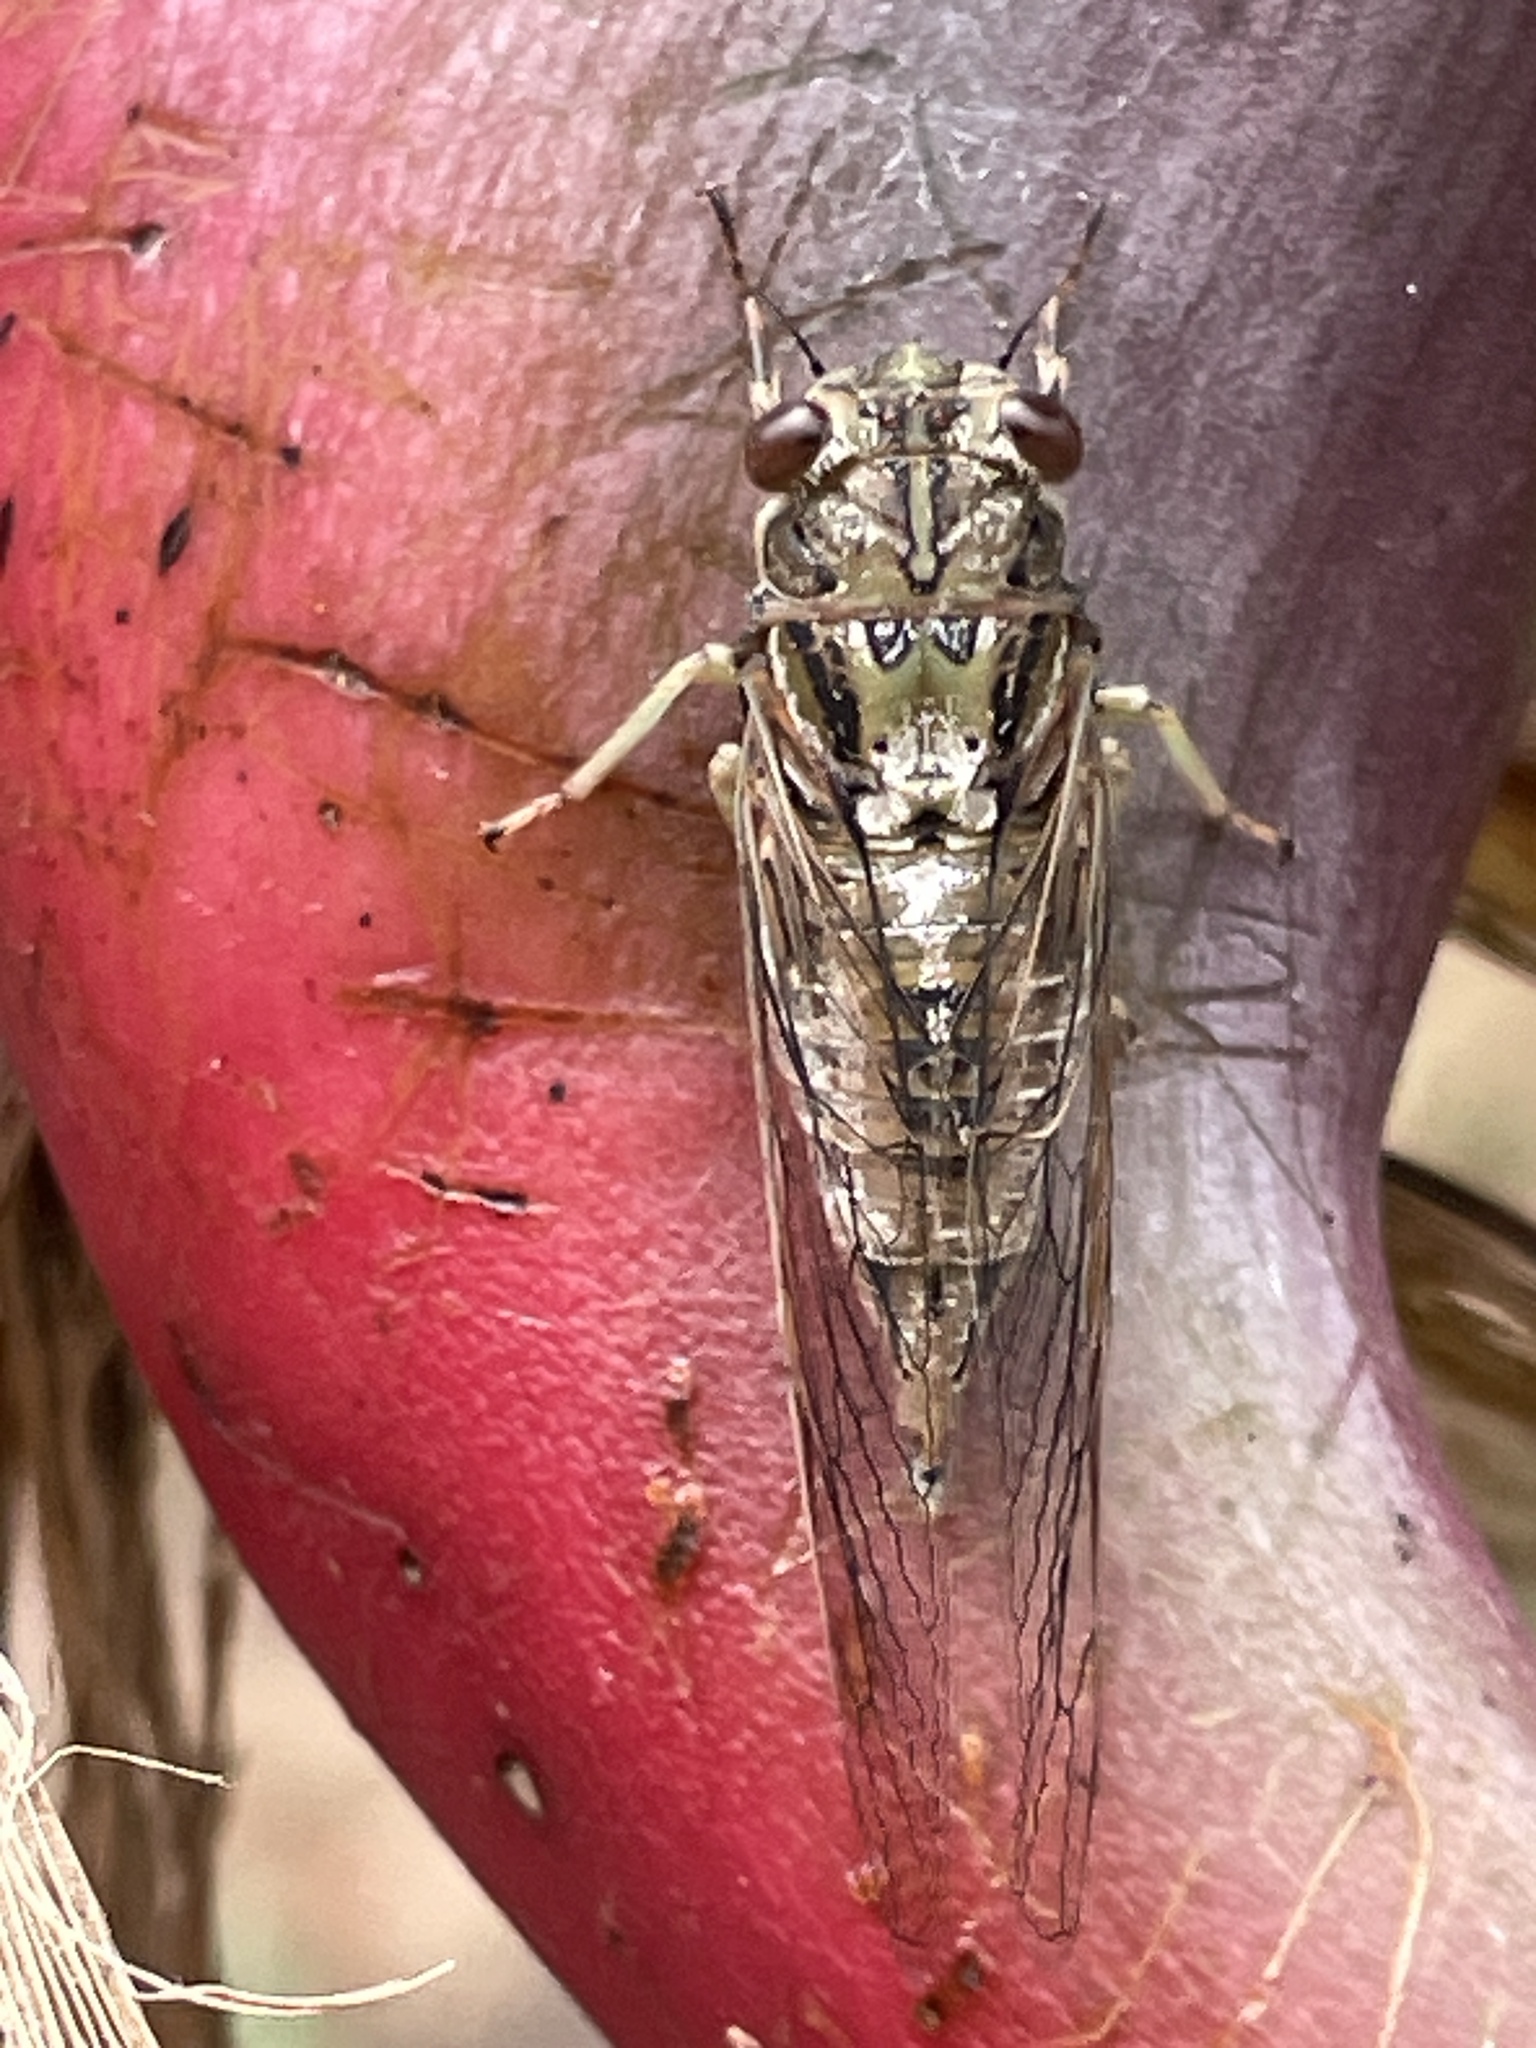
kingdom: Animalia
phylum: Arthropoda
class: Insecta
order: Hemiptera
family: Cicadidae
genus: Yoyetta
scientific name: Yoyetta celis
